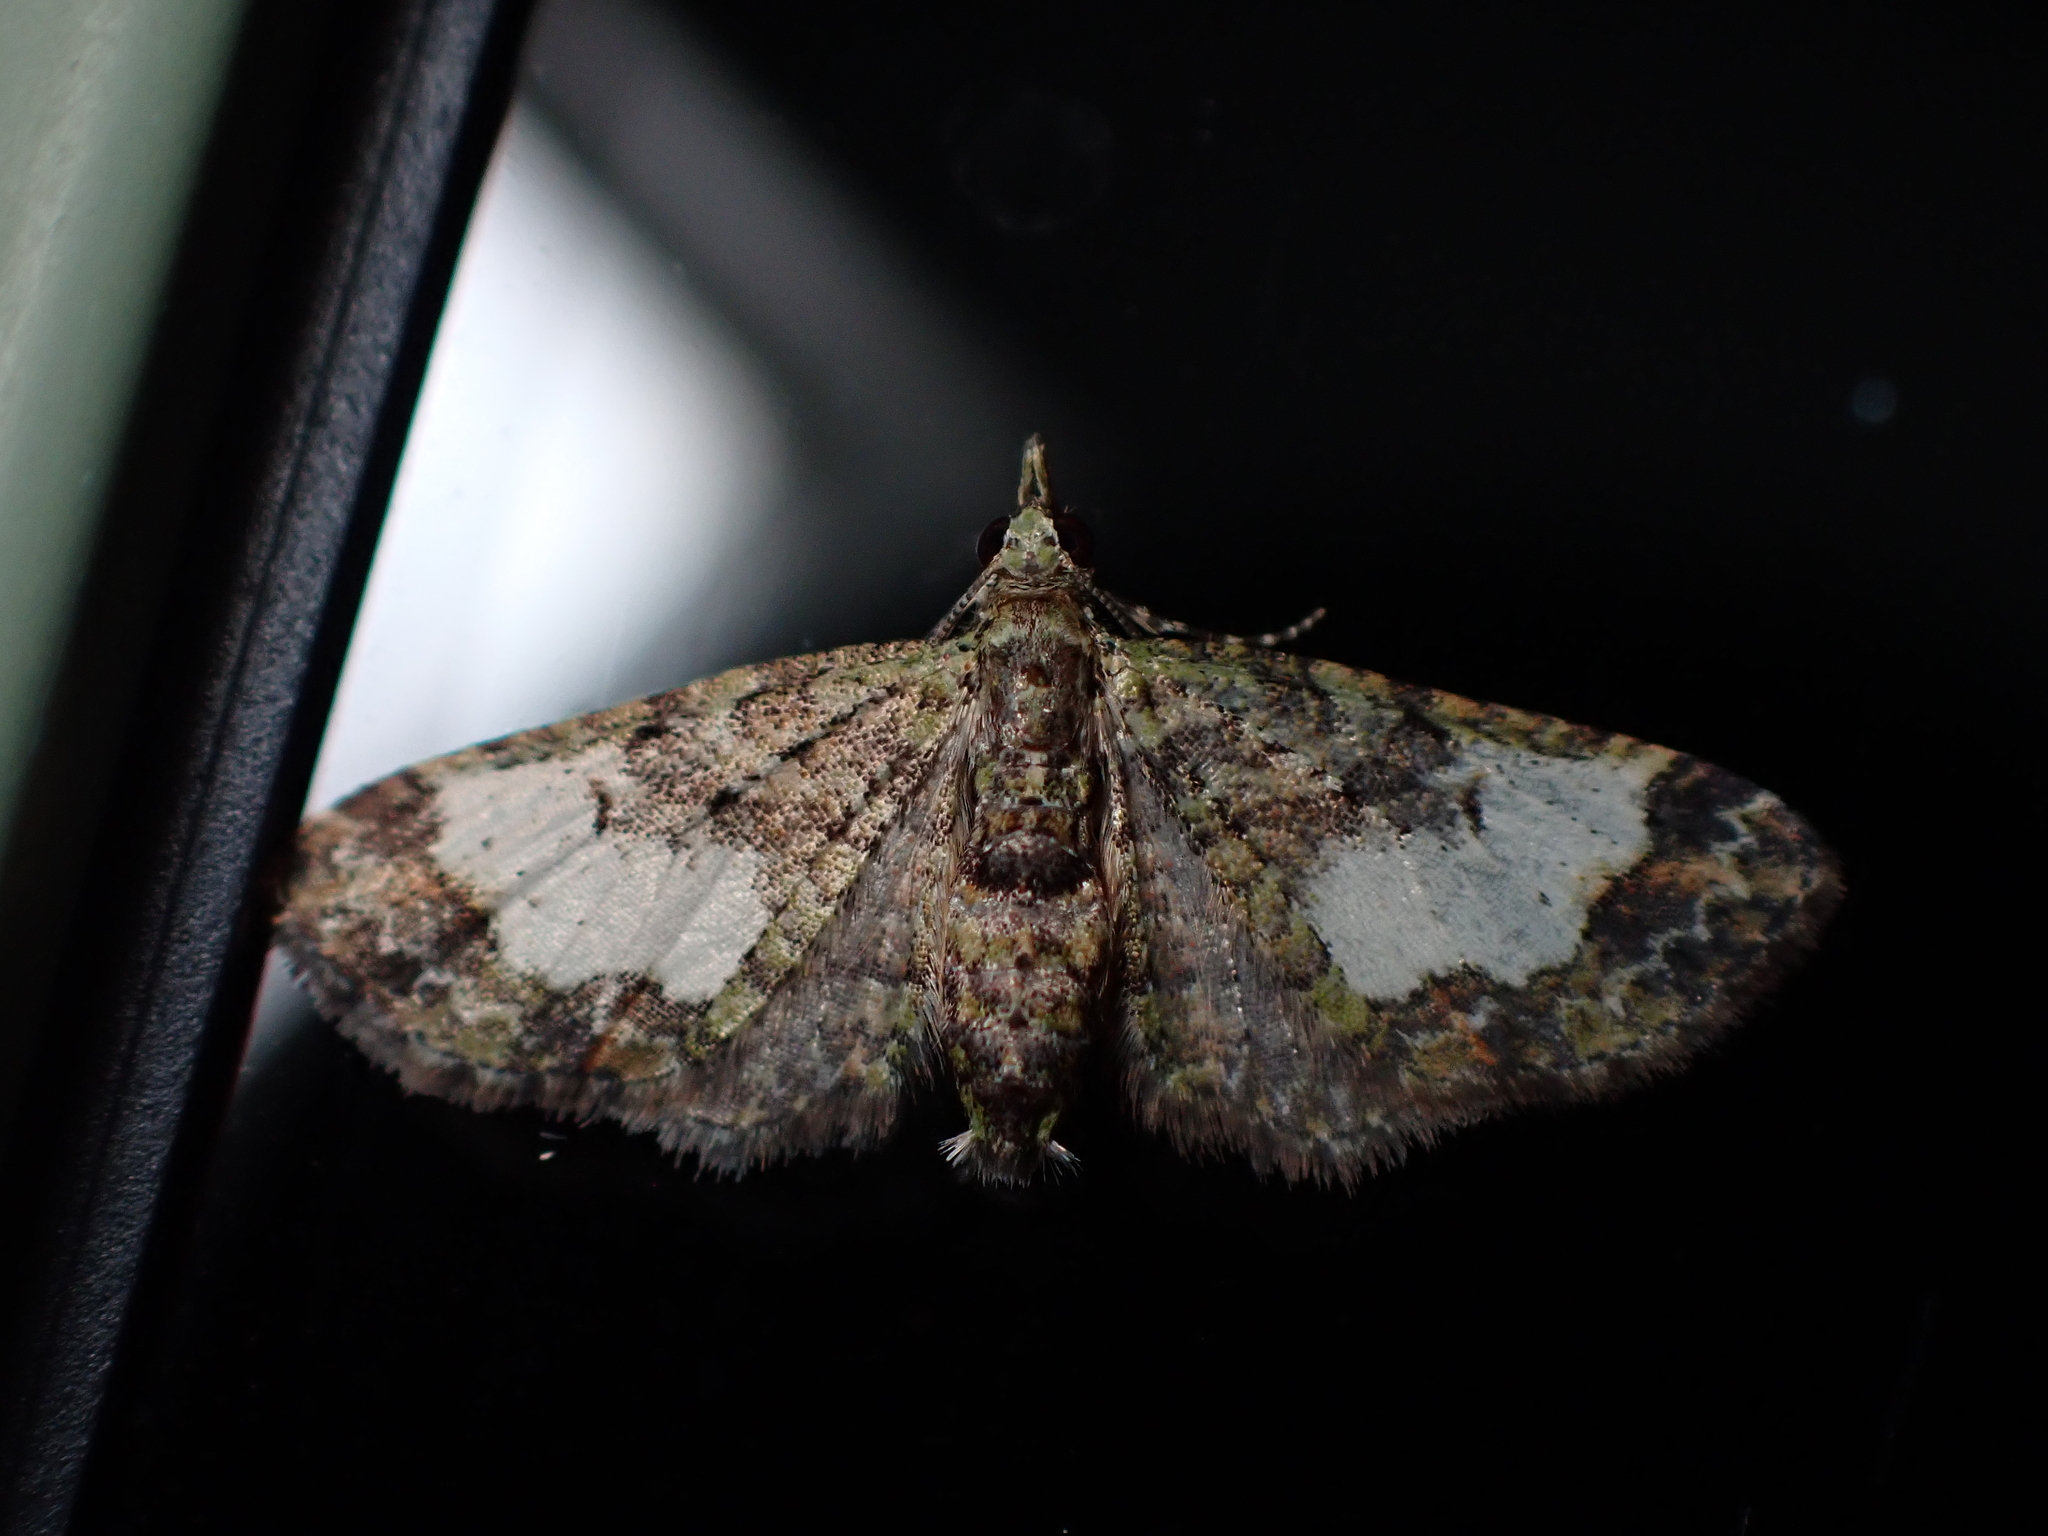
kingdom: Animalia
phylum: Arthropoda
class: Insecta
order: Lepidoptera
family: Geometridae
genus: Idaea
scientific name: Idaea mutanda
